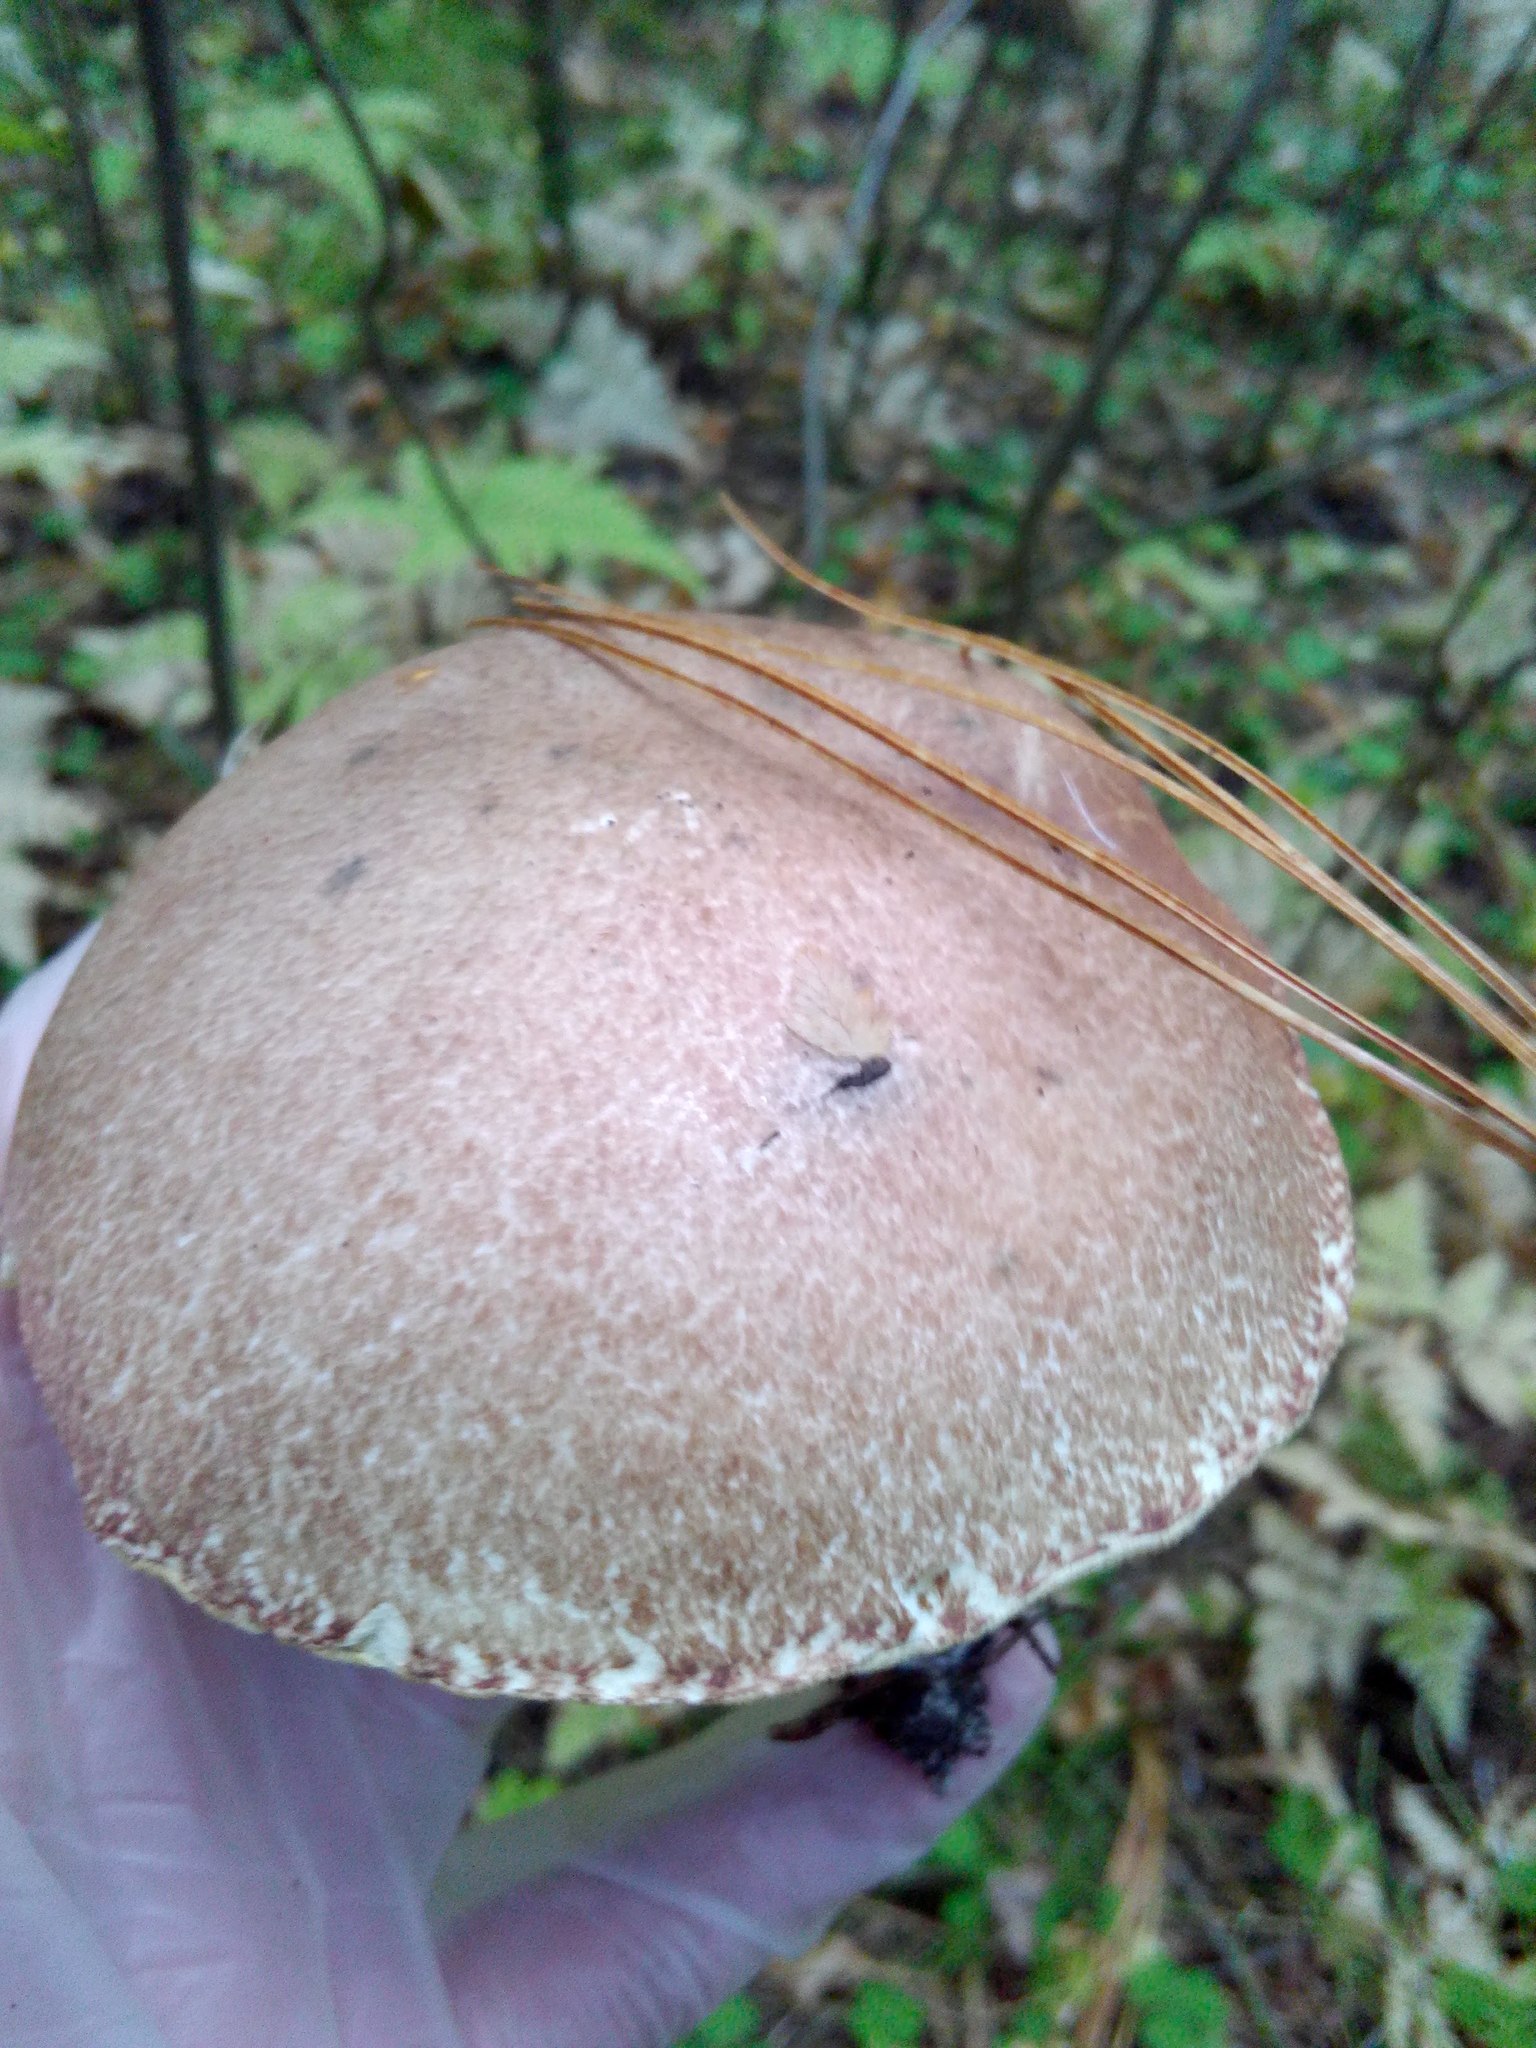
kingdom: Fungi
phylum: Basidiomycota
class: Agaricomycetes
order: Boletales
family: Suillaceae
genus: Suillus
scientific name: Suillus placidus
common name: Slippery white bolete
